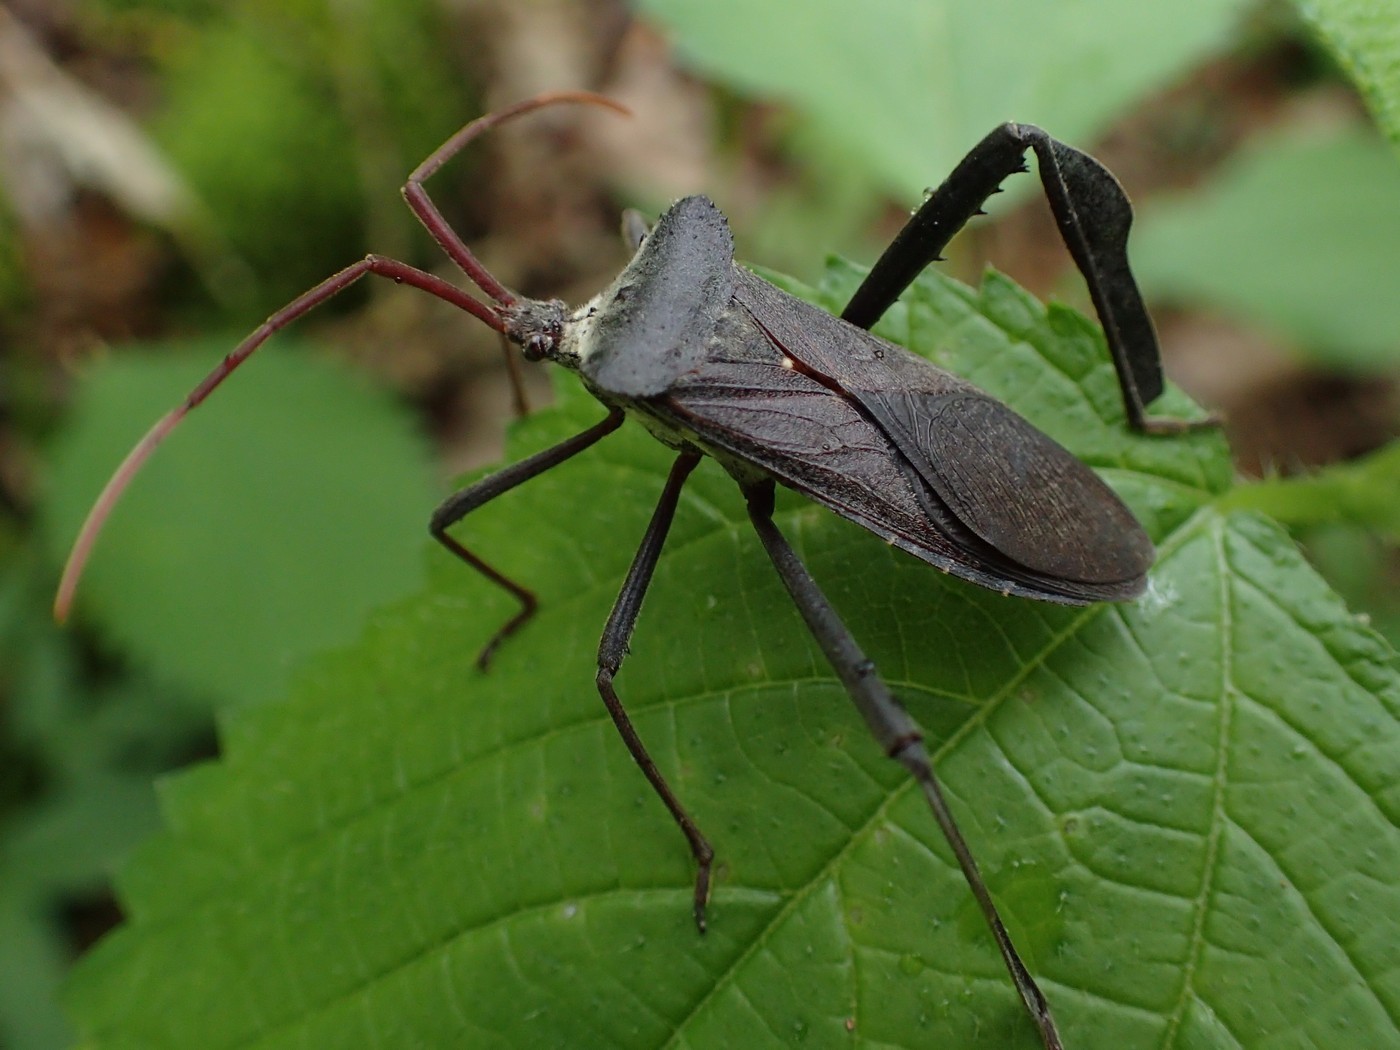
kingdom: Animalia
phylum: Arthropoda
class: Insecta
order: Hemiptera
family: Coreidae
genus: Acanthocephala
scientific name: Acanthocephala declivis
